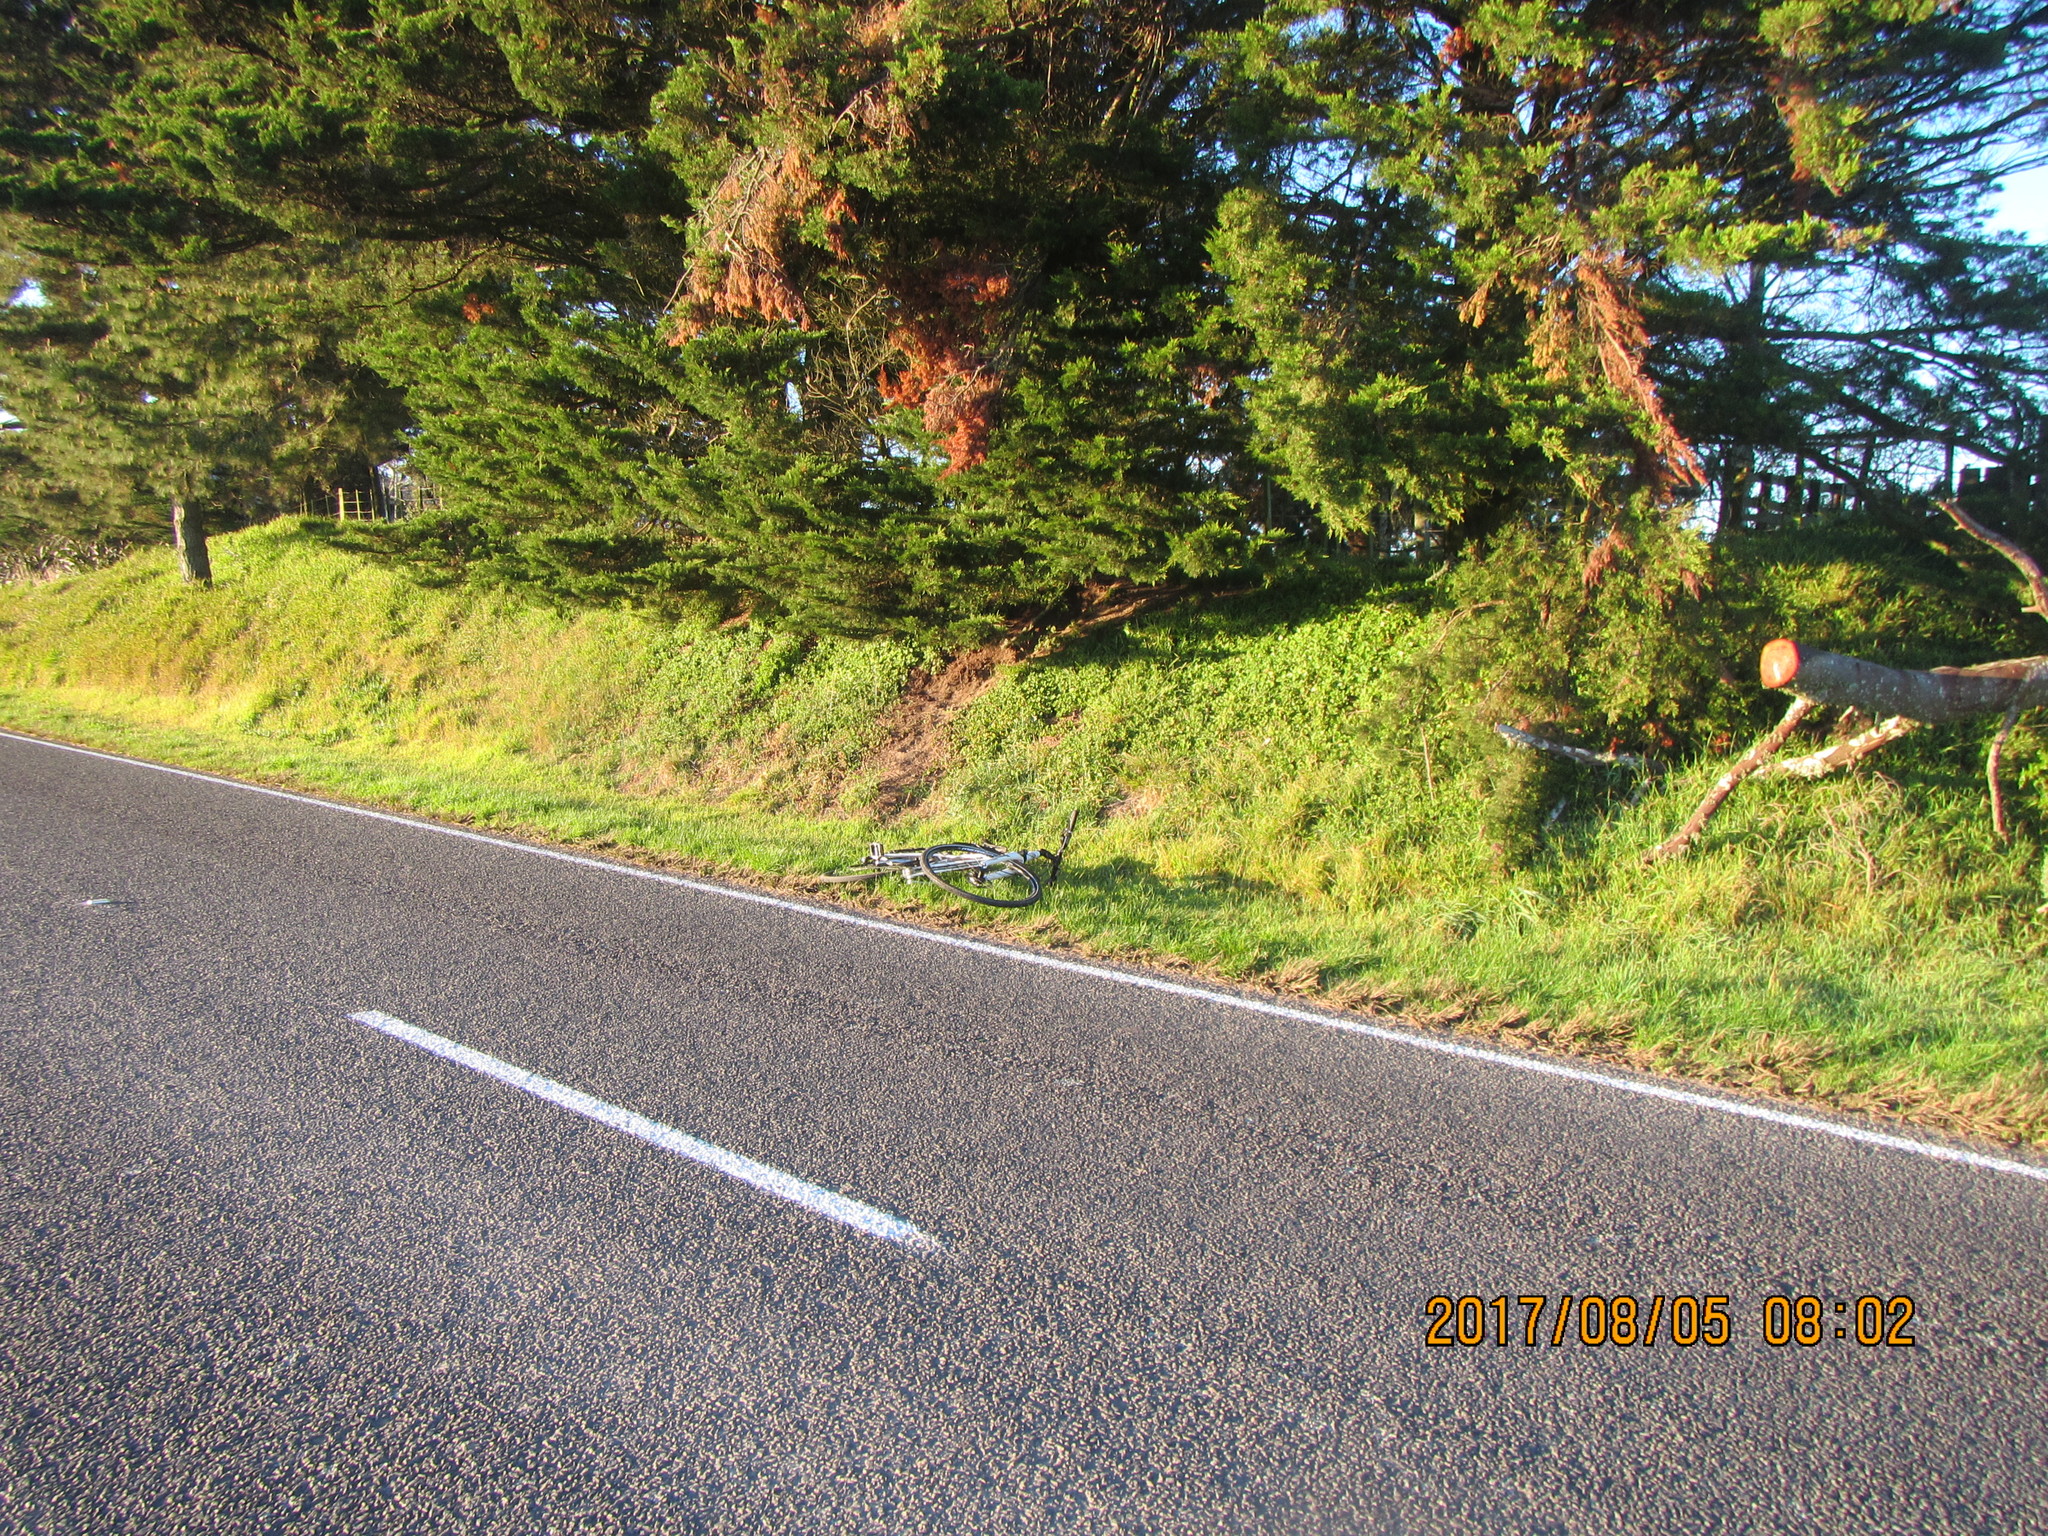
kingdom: Plantae
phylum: Tracheophyta
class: Magnoliopsida
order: Caryophyllales
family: Aizoaceae
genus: Tetragonia
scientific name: Tetragonia implexicoma
